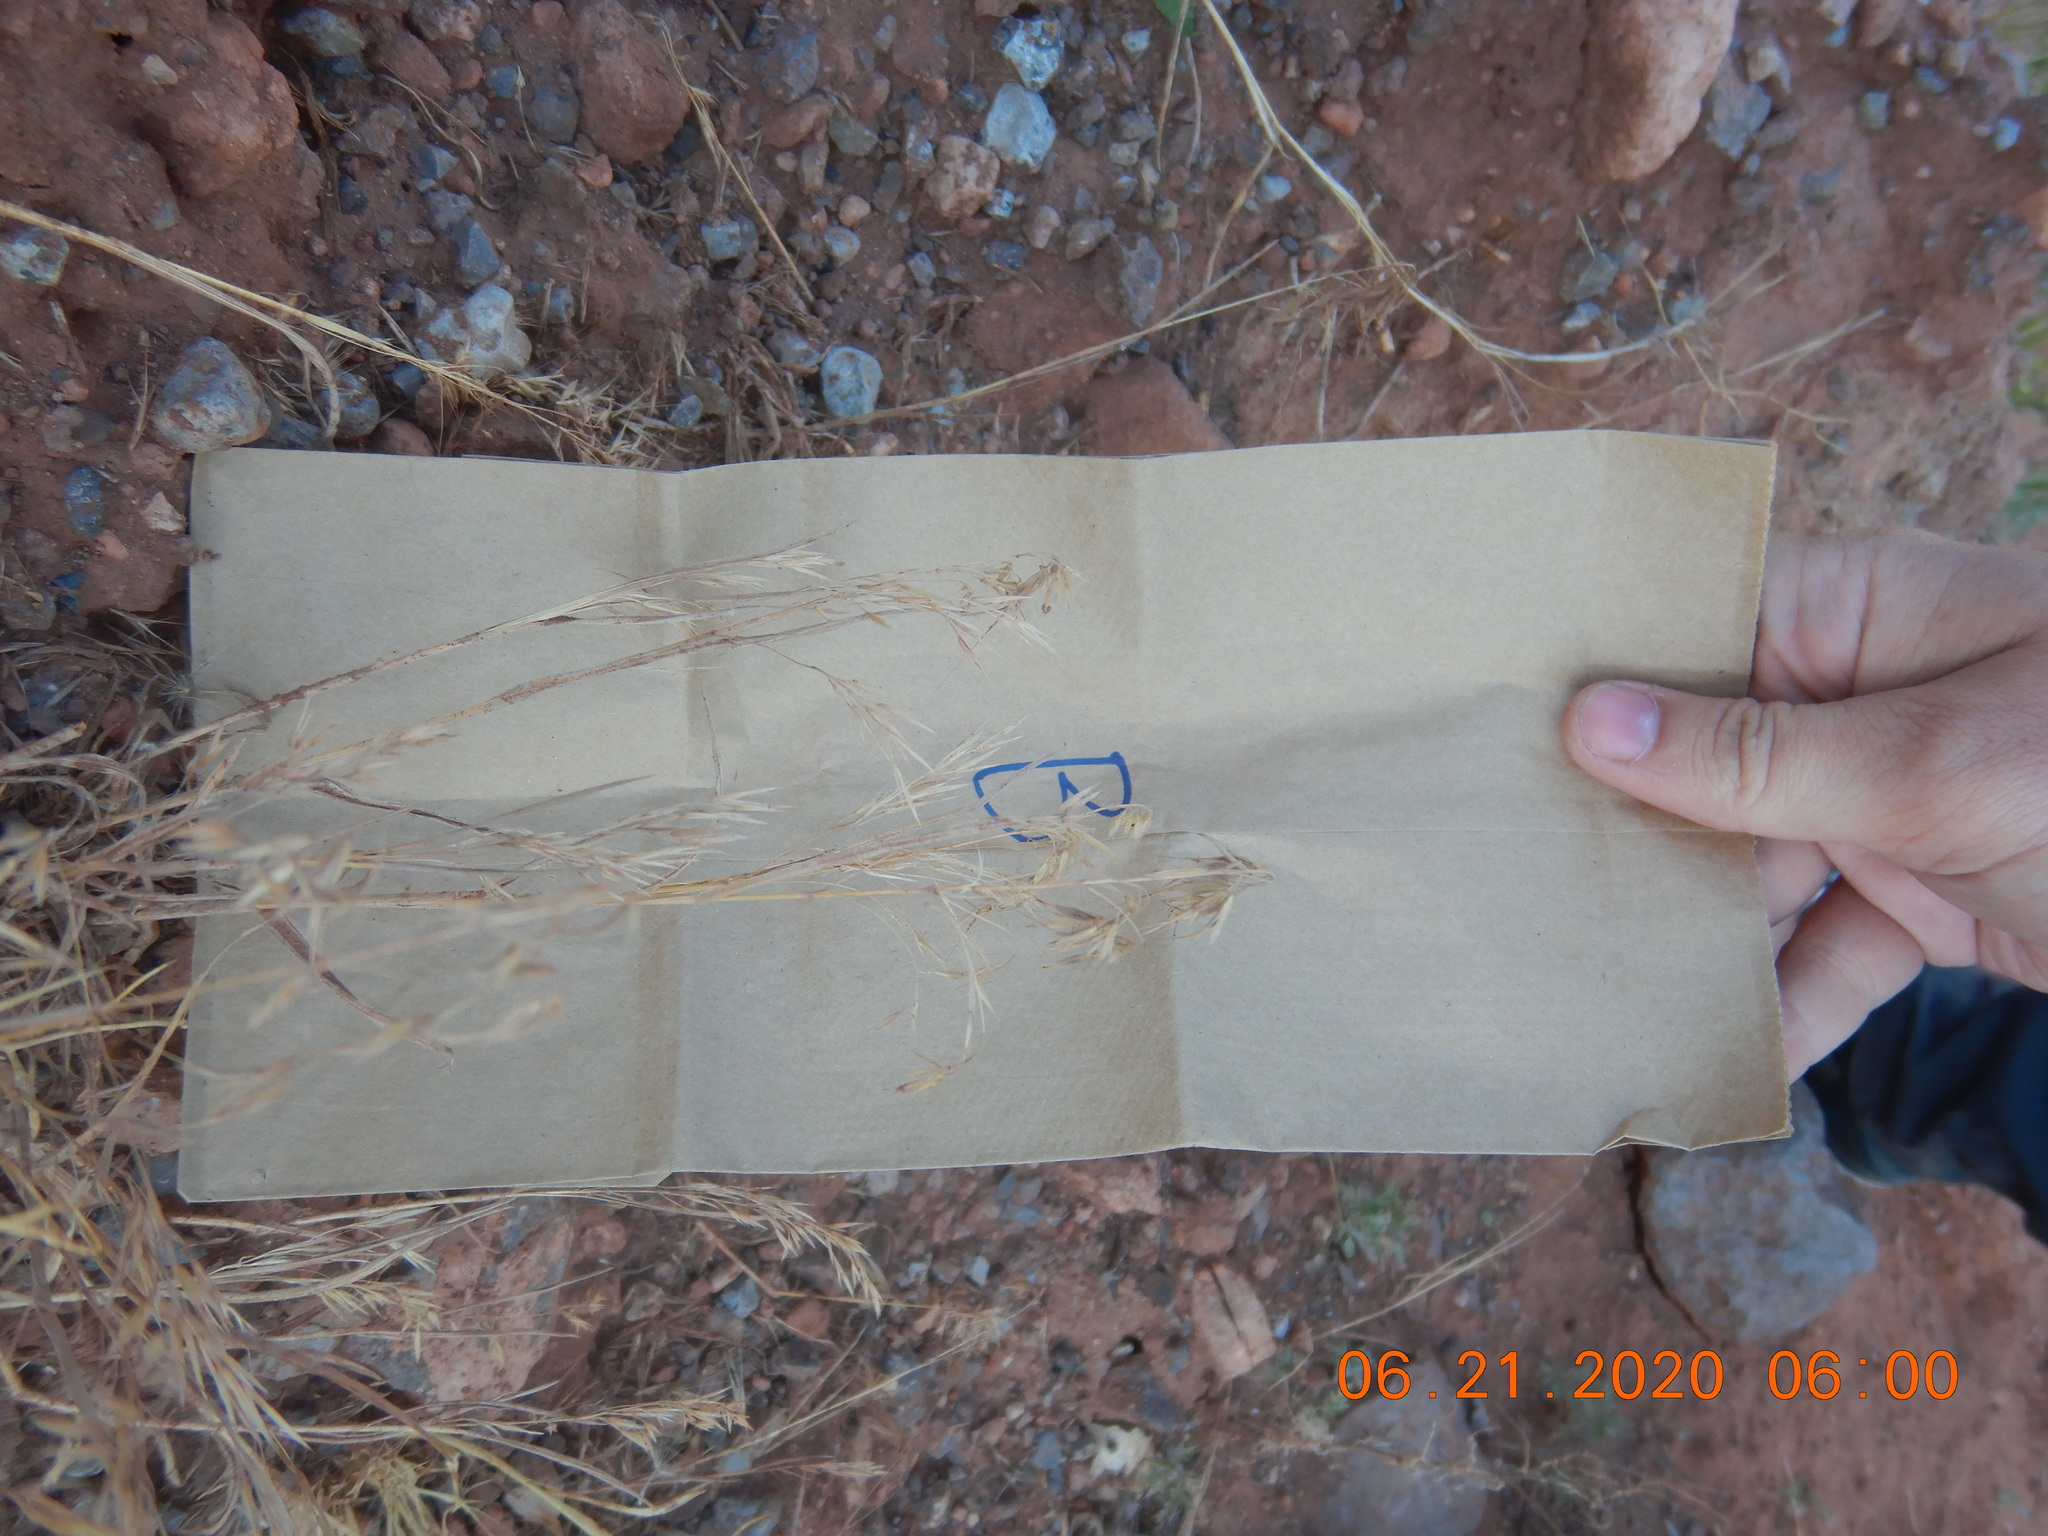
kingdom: Plantae
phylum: Tracheophyta
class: Liliopsida
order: Poales
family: Poaceae
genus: Bromus
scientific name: Bromus tectorum
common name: Cheatgrass
